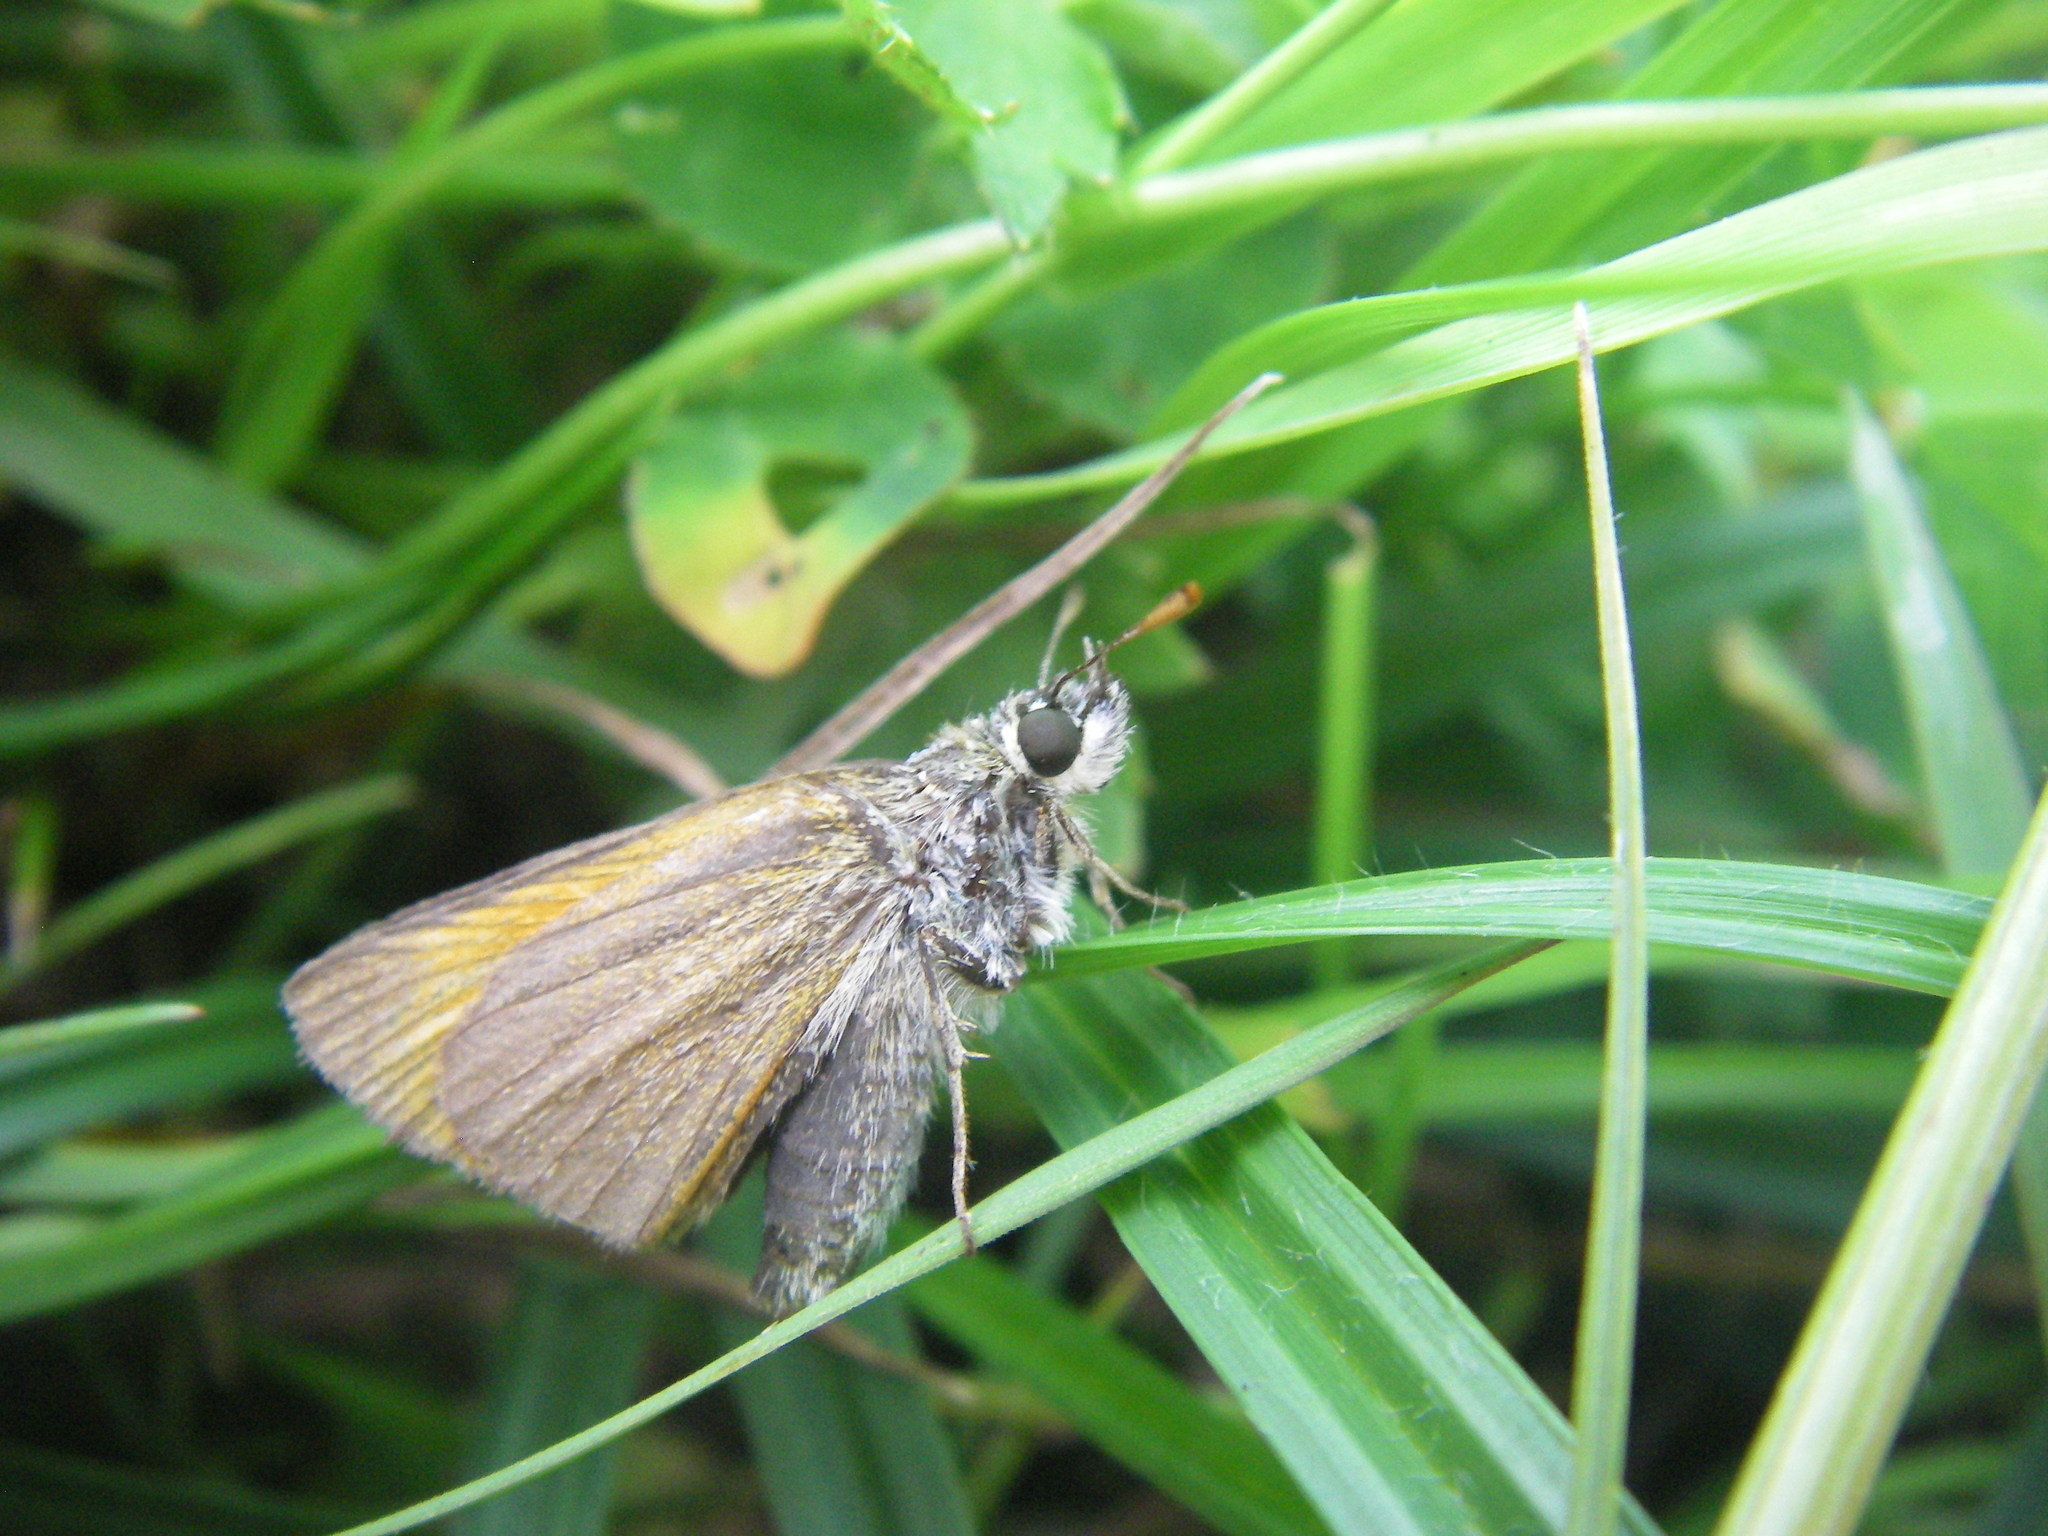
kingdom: Animalia
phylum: Arthropoda
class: Insecta
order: Lepidoptera
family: Hesperiidae
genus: Thymelicus
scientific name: Thymelicus sylvestris
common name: Small skipper
